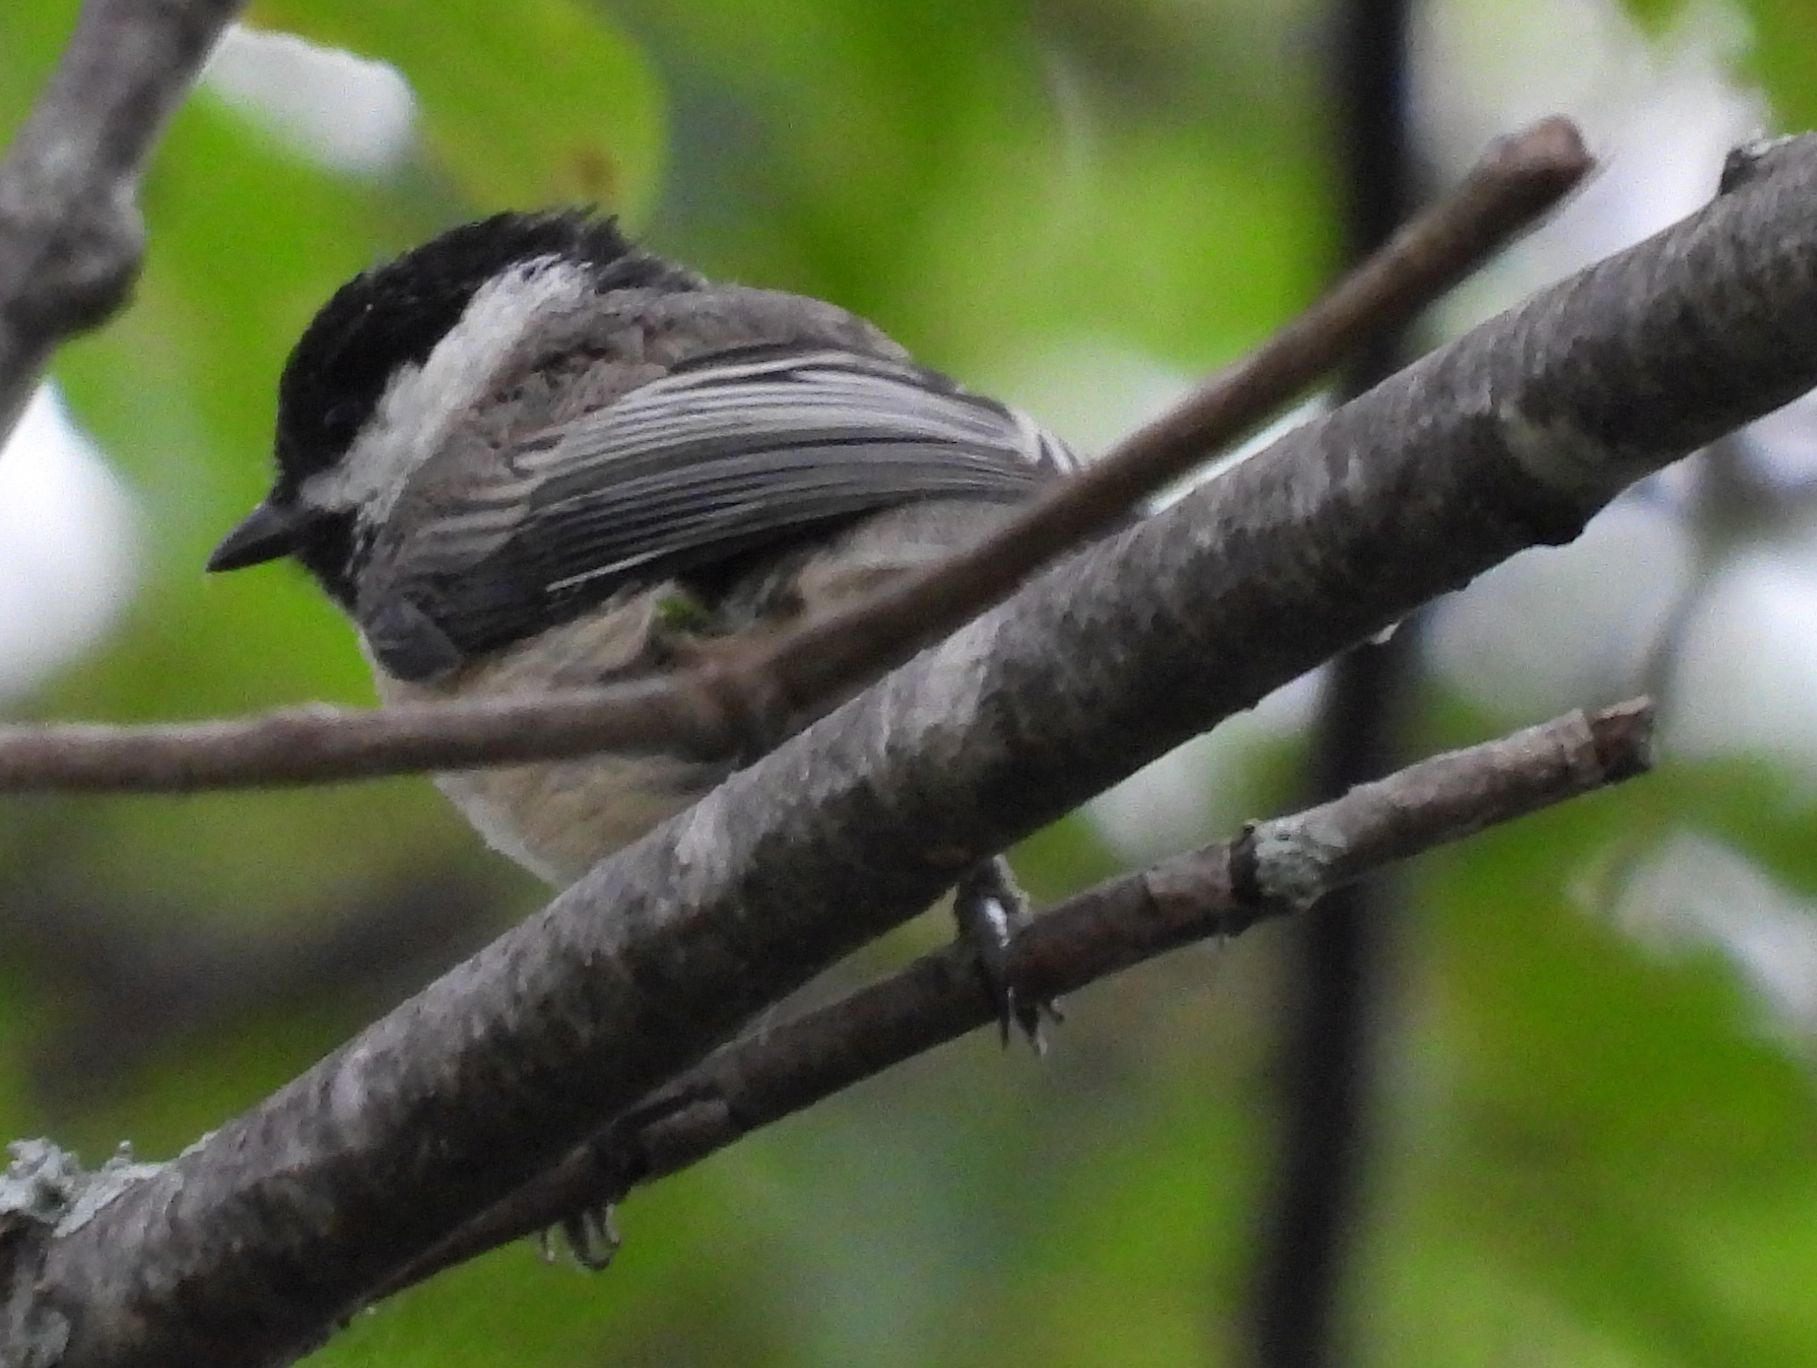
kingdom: Animalia
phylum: Chordata
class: Aves
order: Passeriformes
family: Paridae
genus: Poecile
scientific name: Poecile atricapillus
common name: Black-capped chickadee
